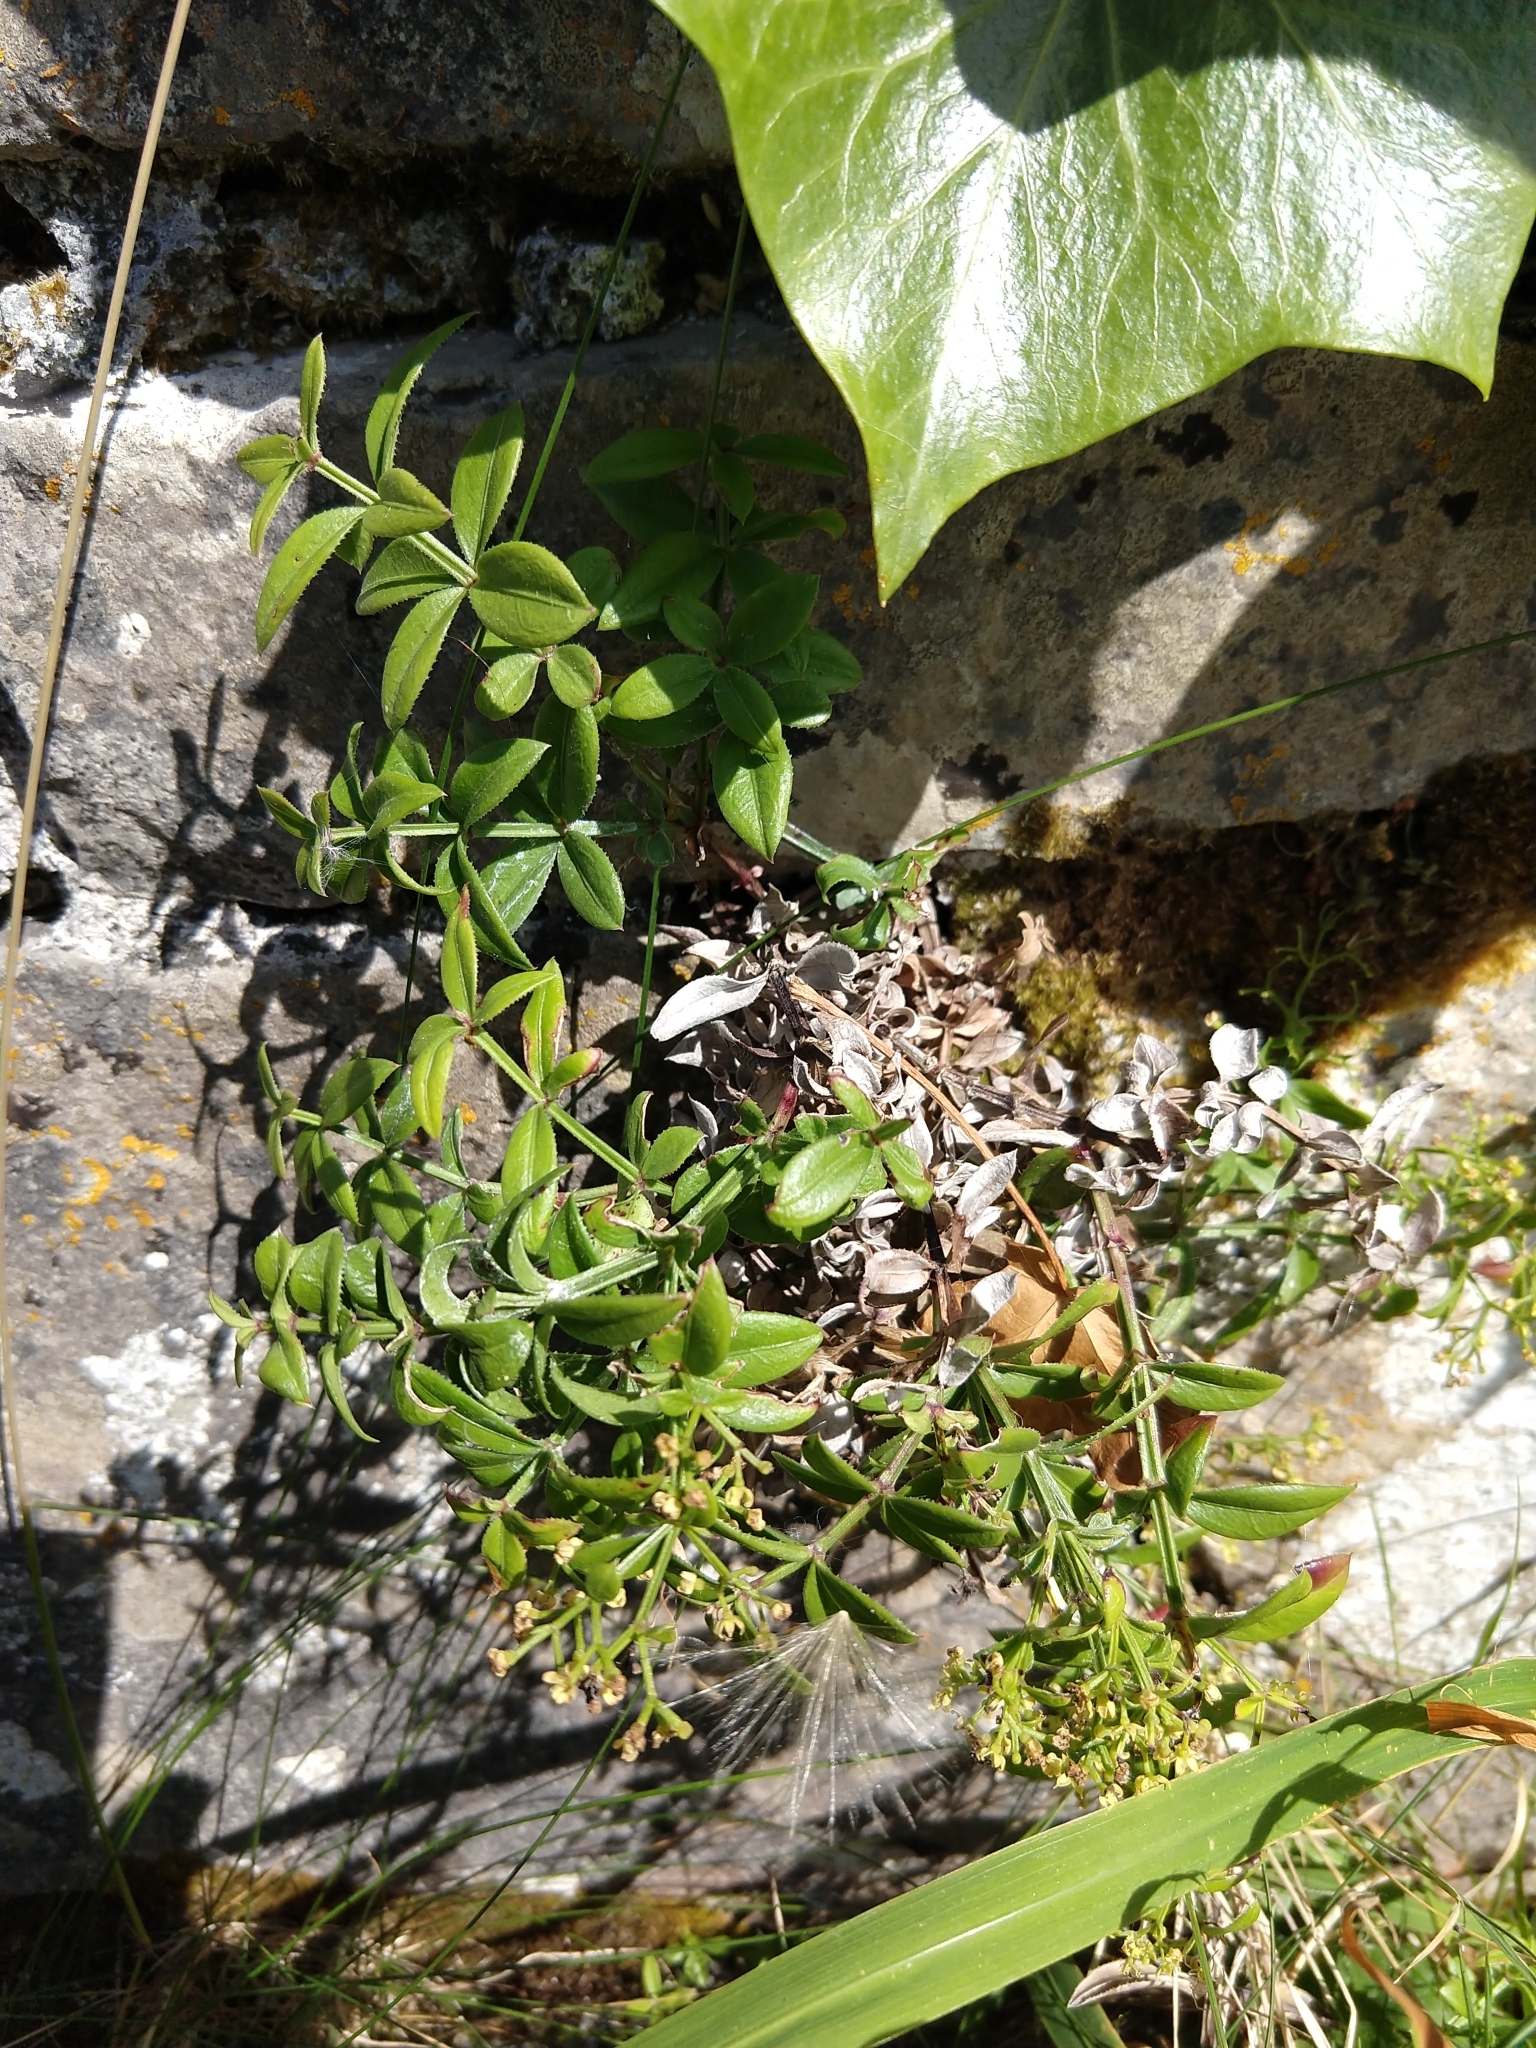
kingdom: Plantae
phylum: Tracheophyta
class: Magnoliopsida
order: Gentianales
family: Rubiaceae
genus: Rubia
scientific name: Rubia peregrina
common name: Wild madder
